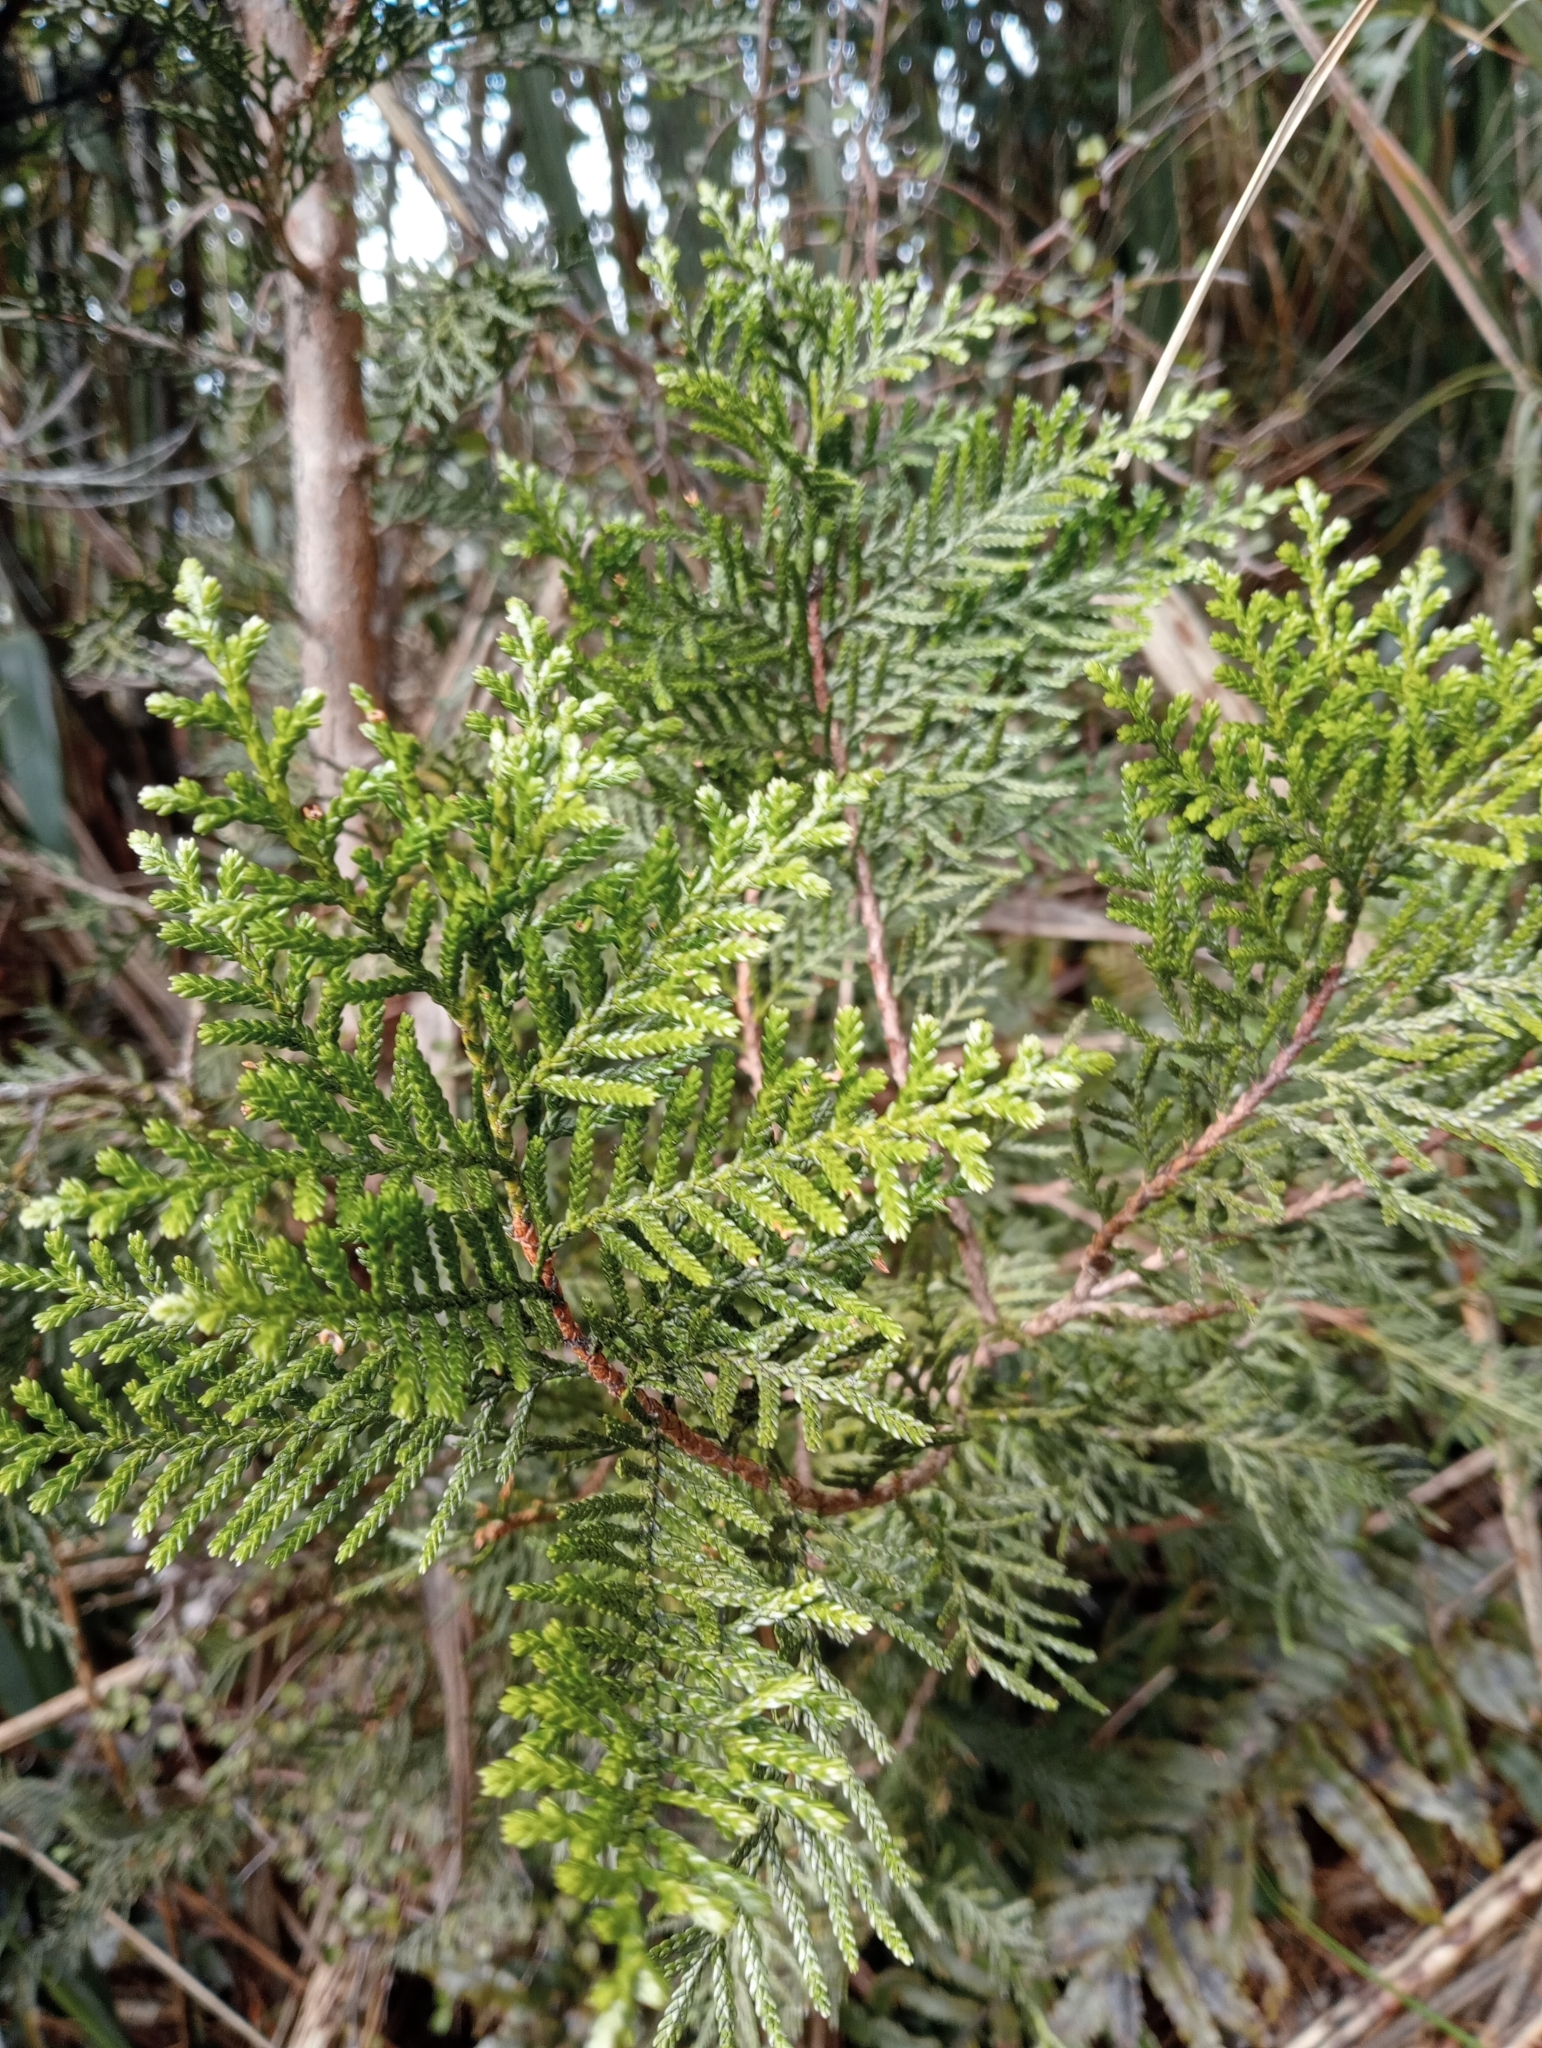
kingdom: Plantae
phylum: Tracheophyta
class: Pinopsida
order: Pinales
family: Cupressaceae
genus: Libocedrus
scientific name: Libocedrus bidwillii
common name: Cedar
